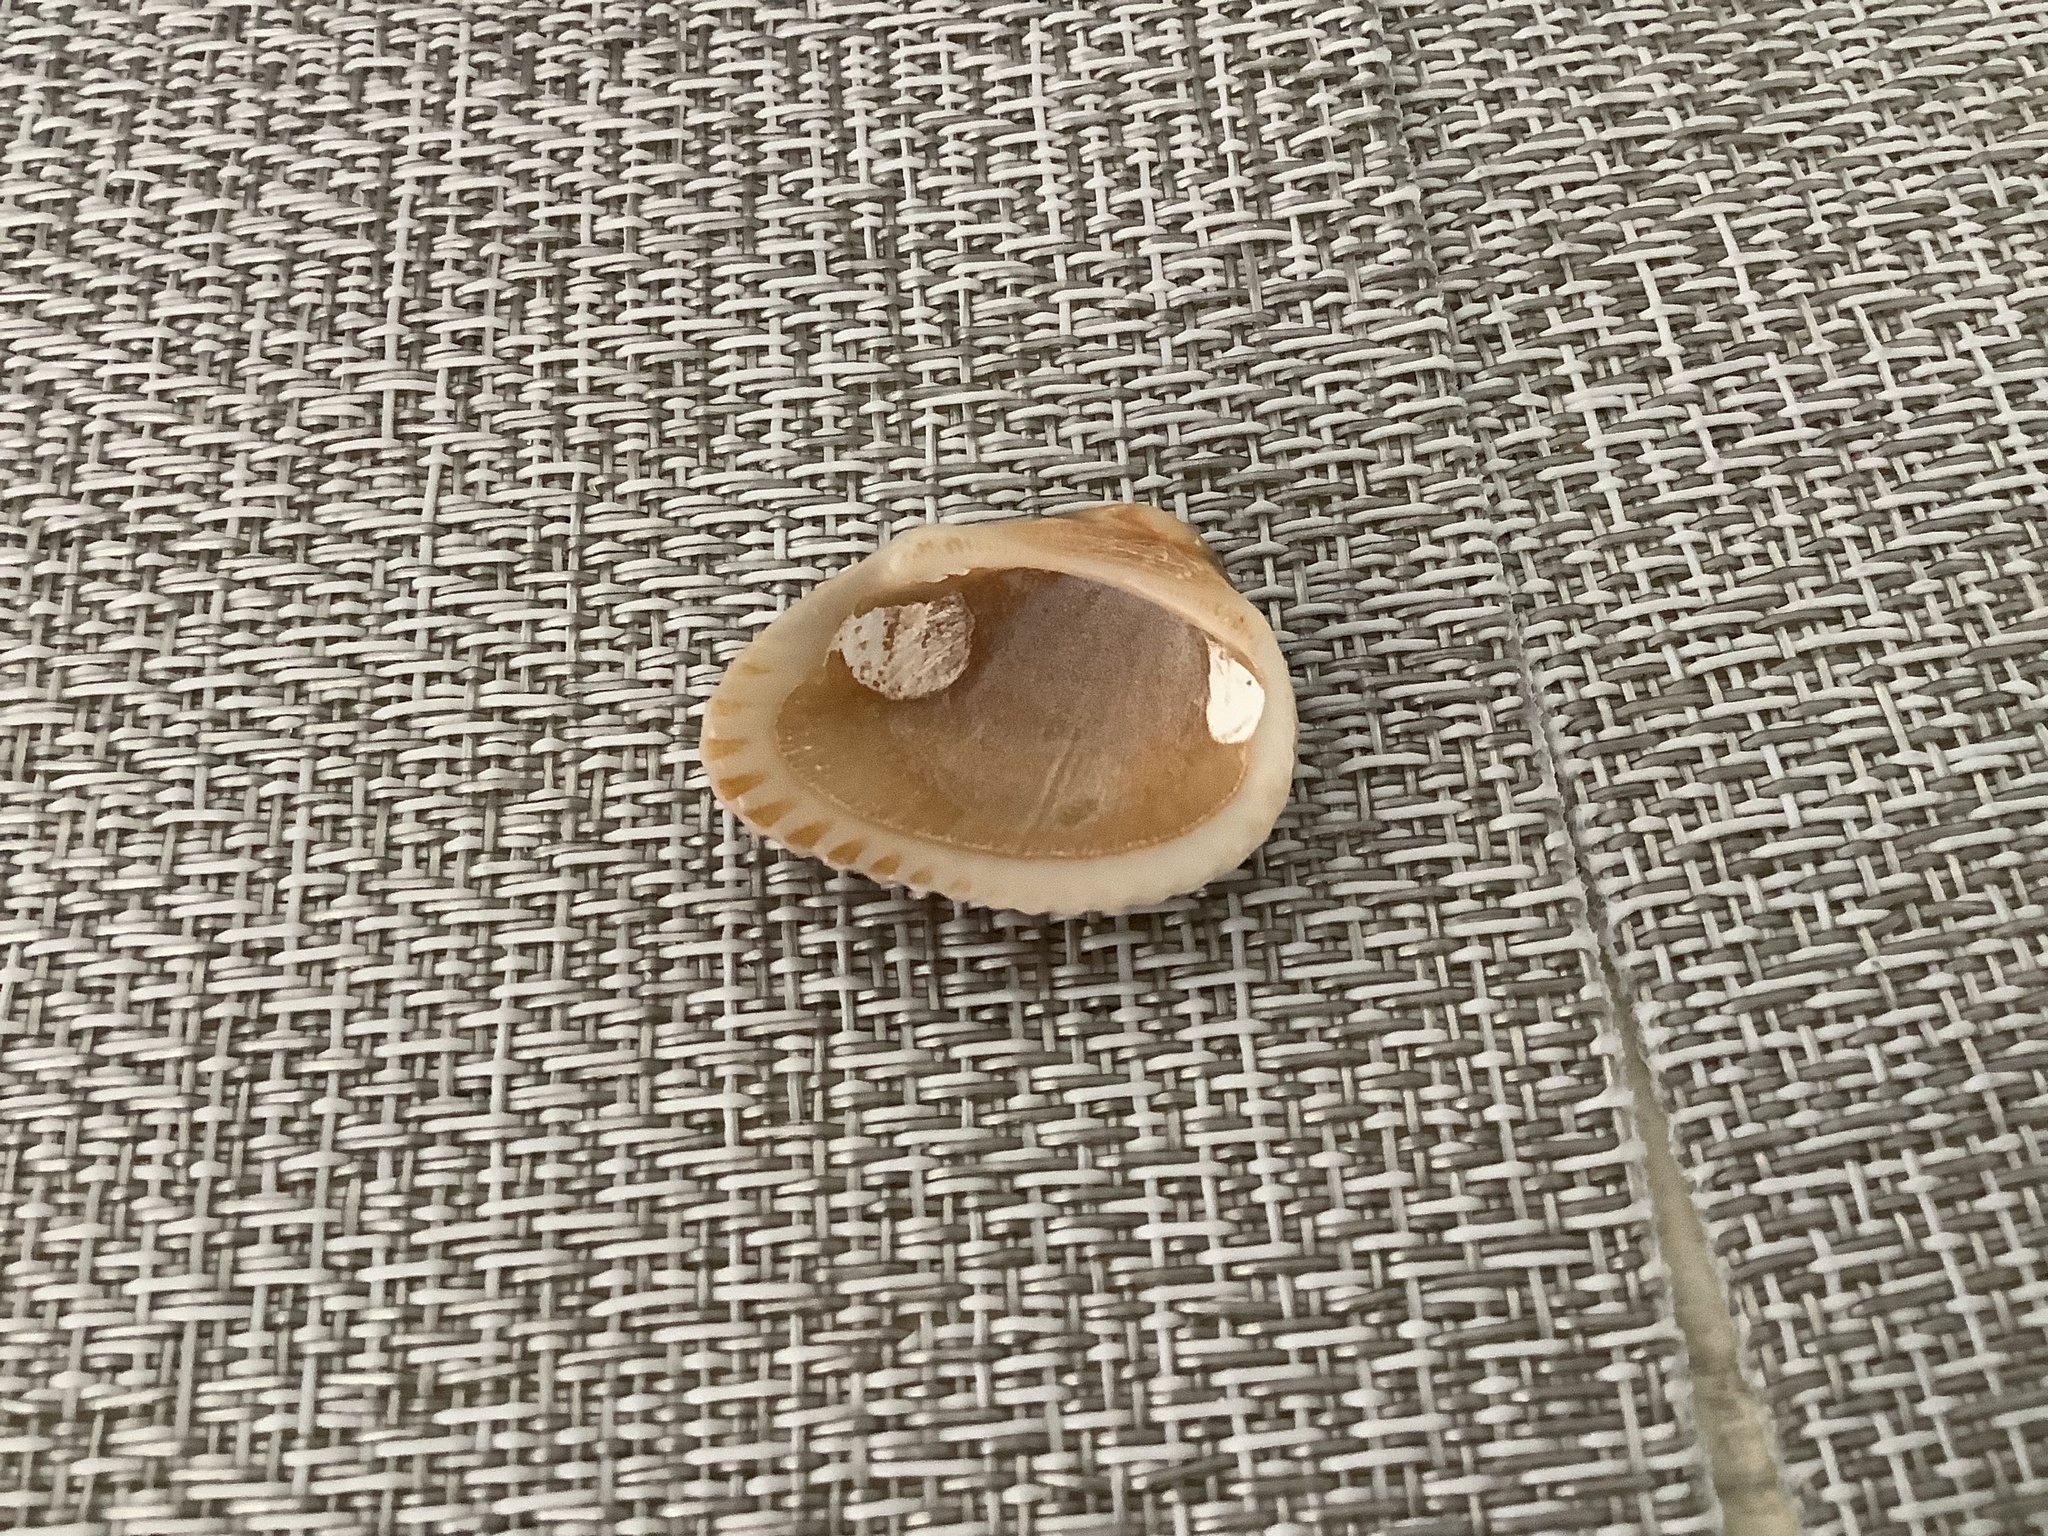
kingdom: Animalia
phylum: Mollusca
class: Bivalvia
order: Arcida
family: Arcidae
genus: Anadara
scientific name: Anadara transversa
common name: Transverse ark
